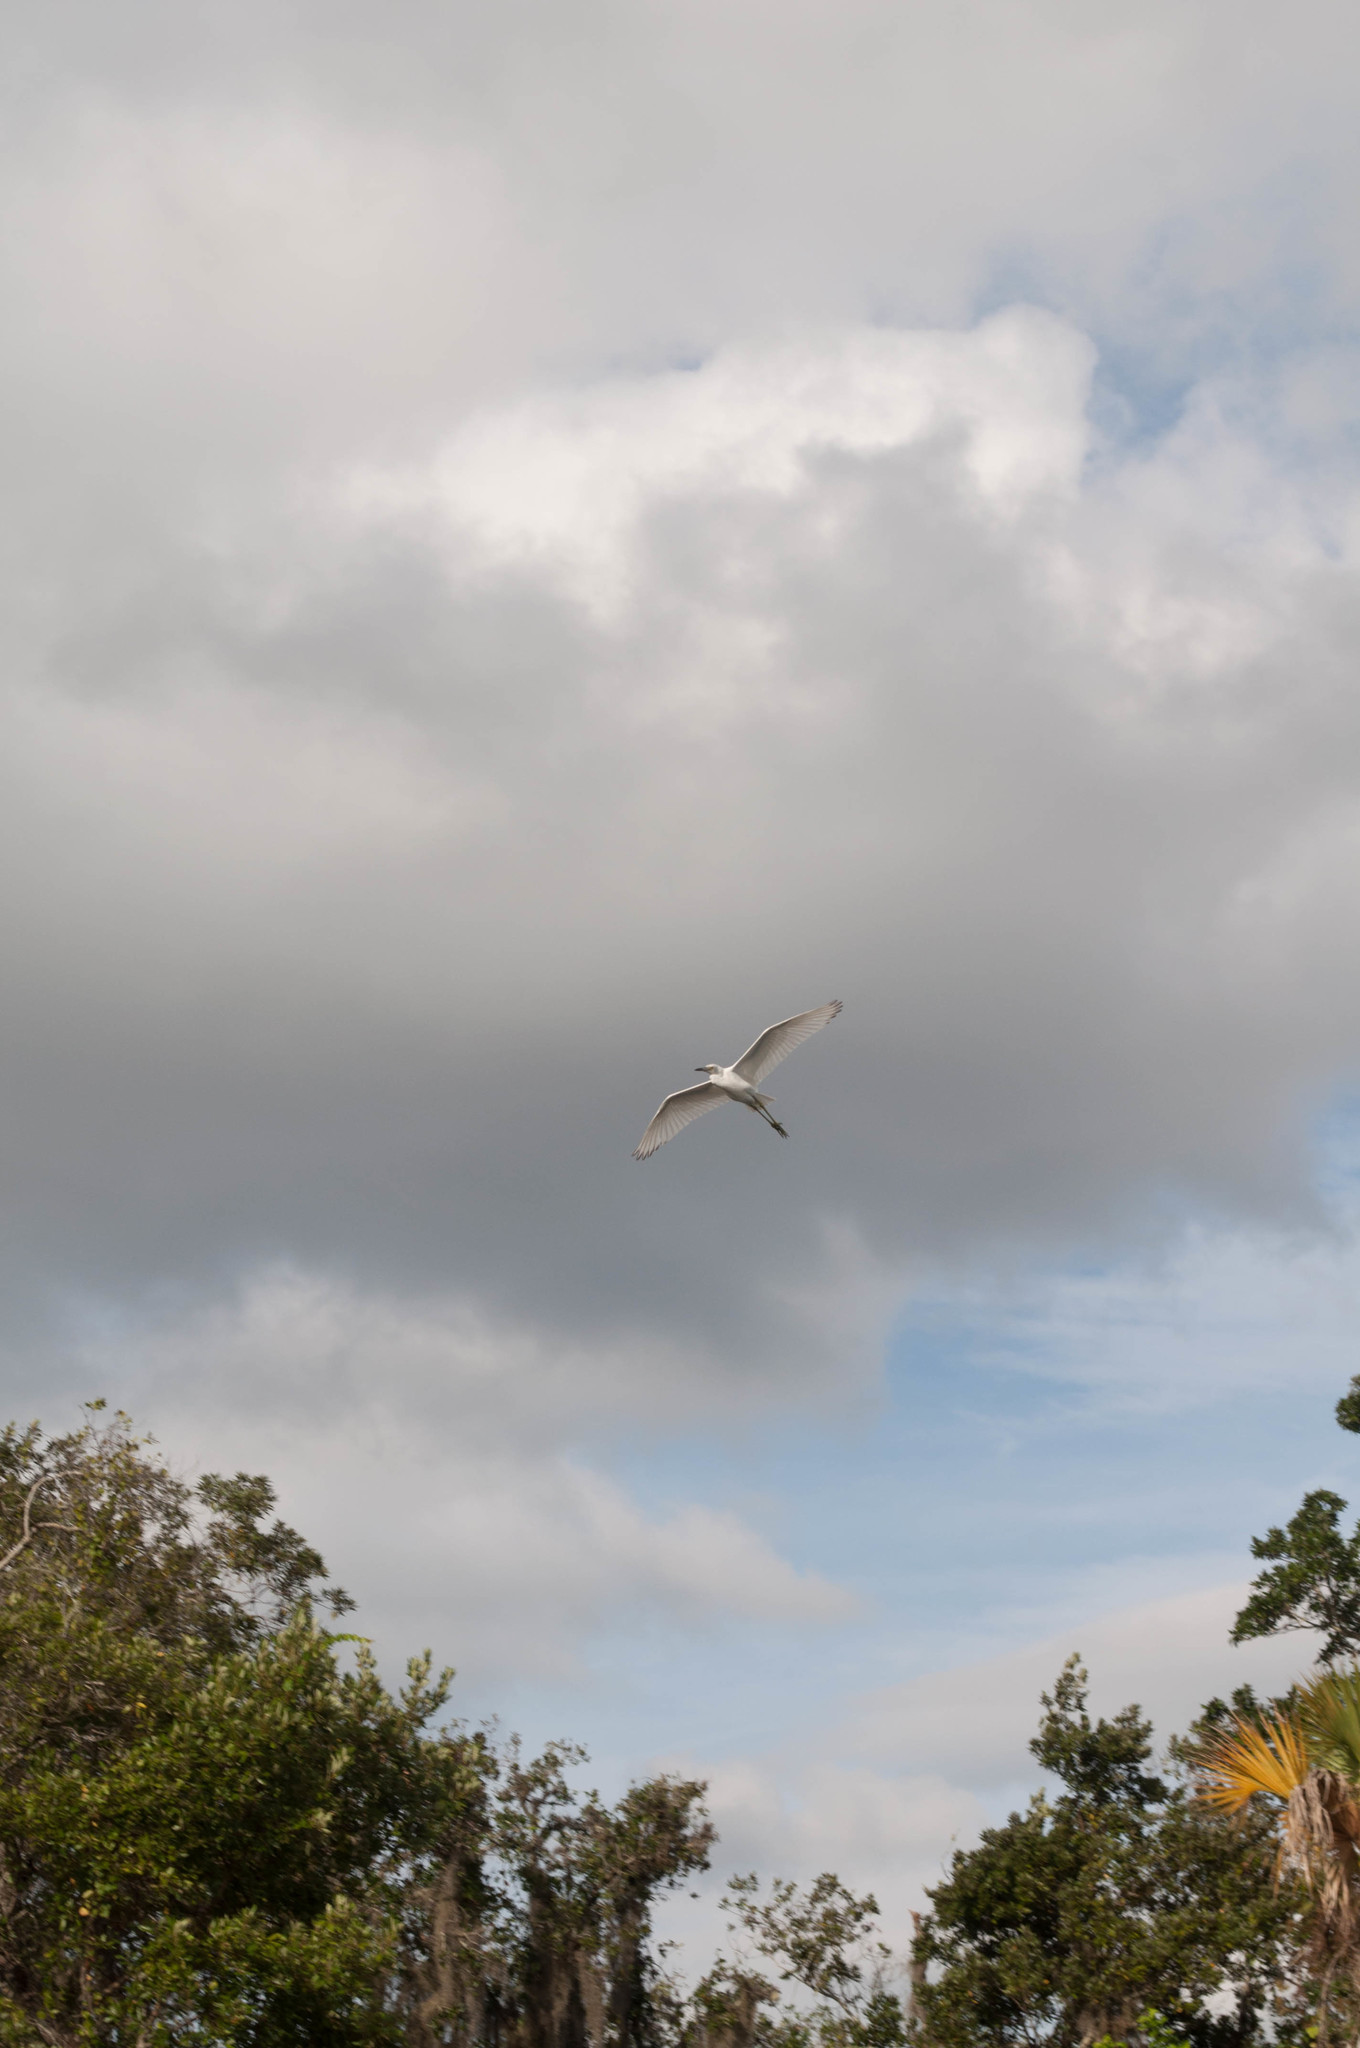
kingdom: Animalia
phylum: Chordata
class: Aves
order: Pelecaniformes
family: Ardeidae
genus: Egretta
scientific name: Egretta caerulea
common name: Little blue heron
